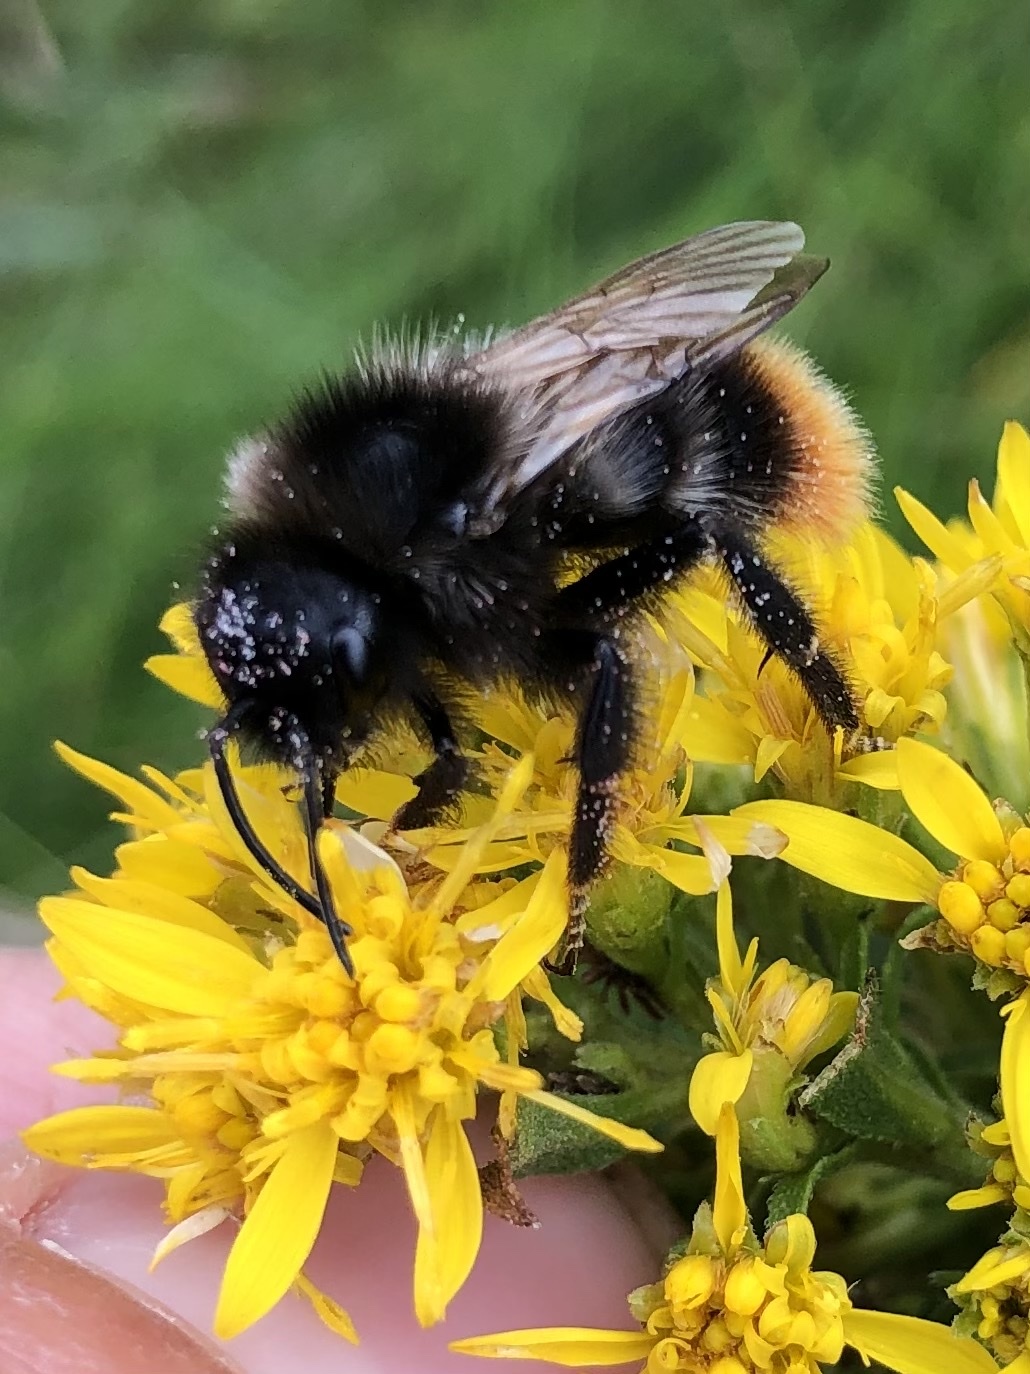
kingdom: Animalia
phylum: Arthropoda
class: Insecta
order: Hymenoptera
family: Apidae
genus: Bombus
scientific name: Bombus rupestris
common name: Hill cuckoo-bee
